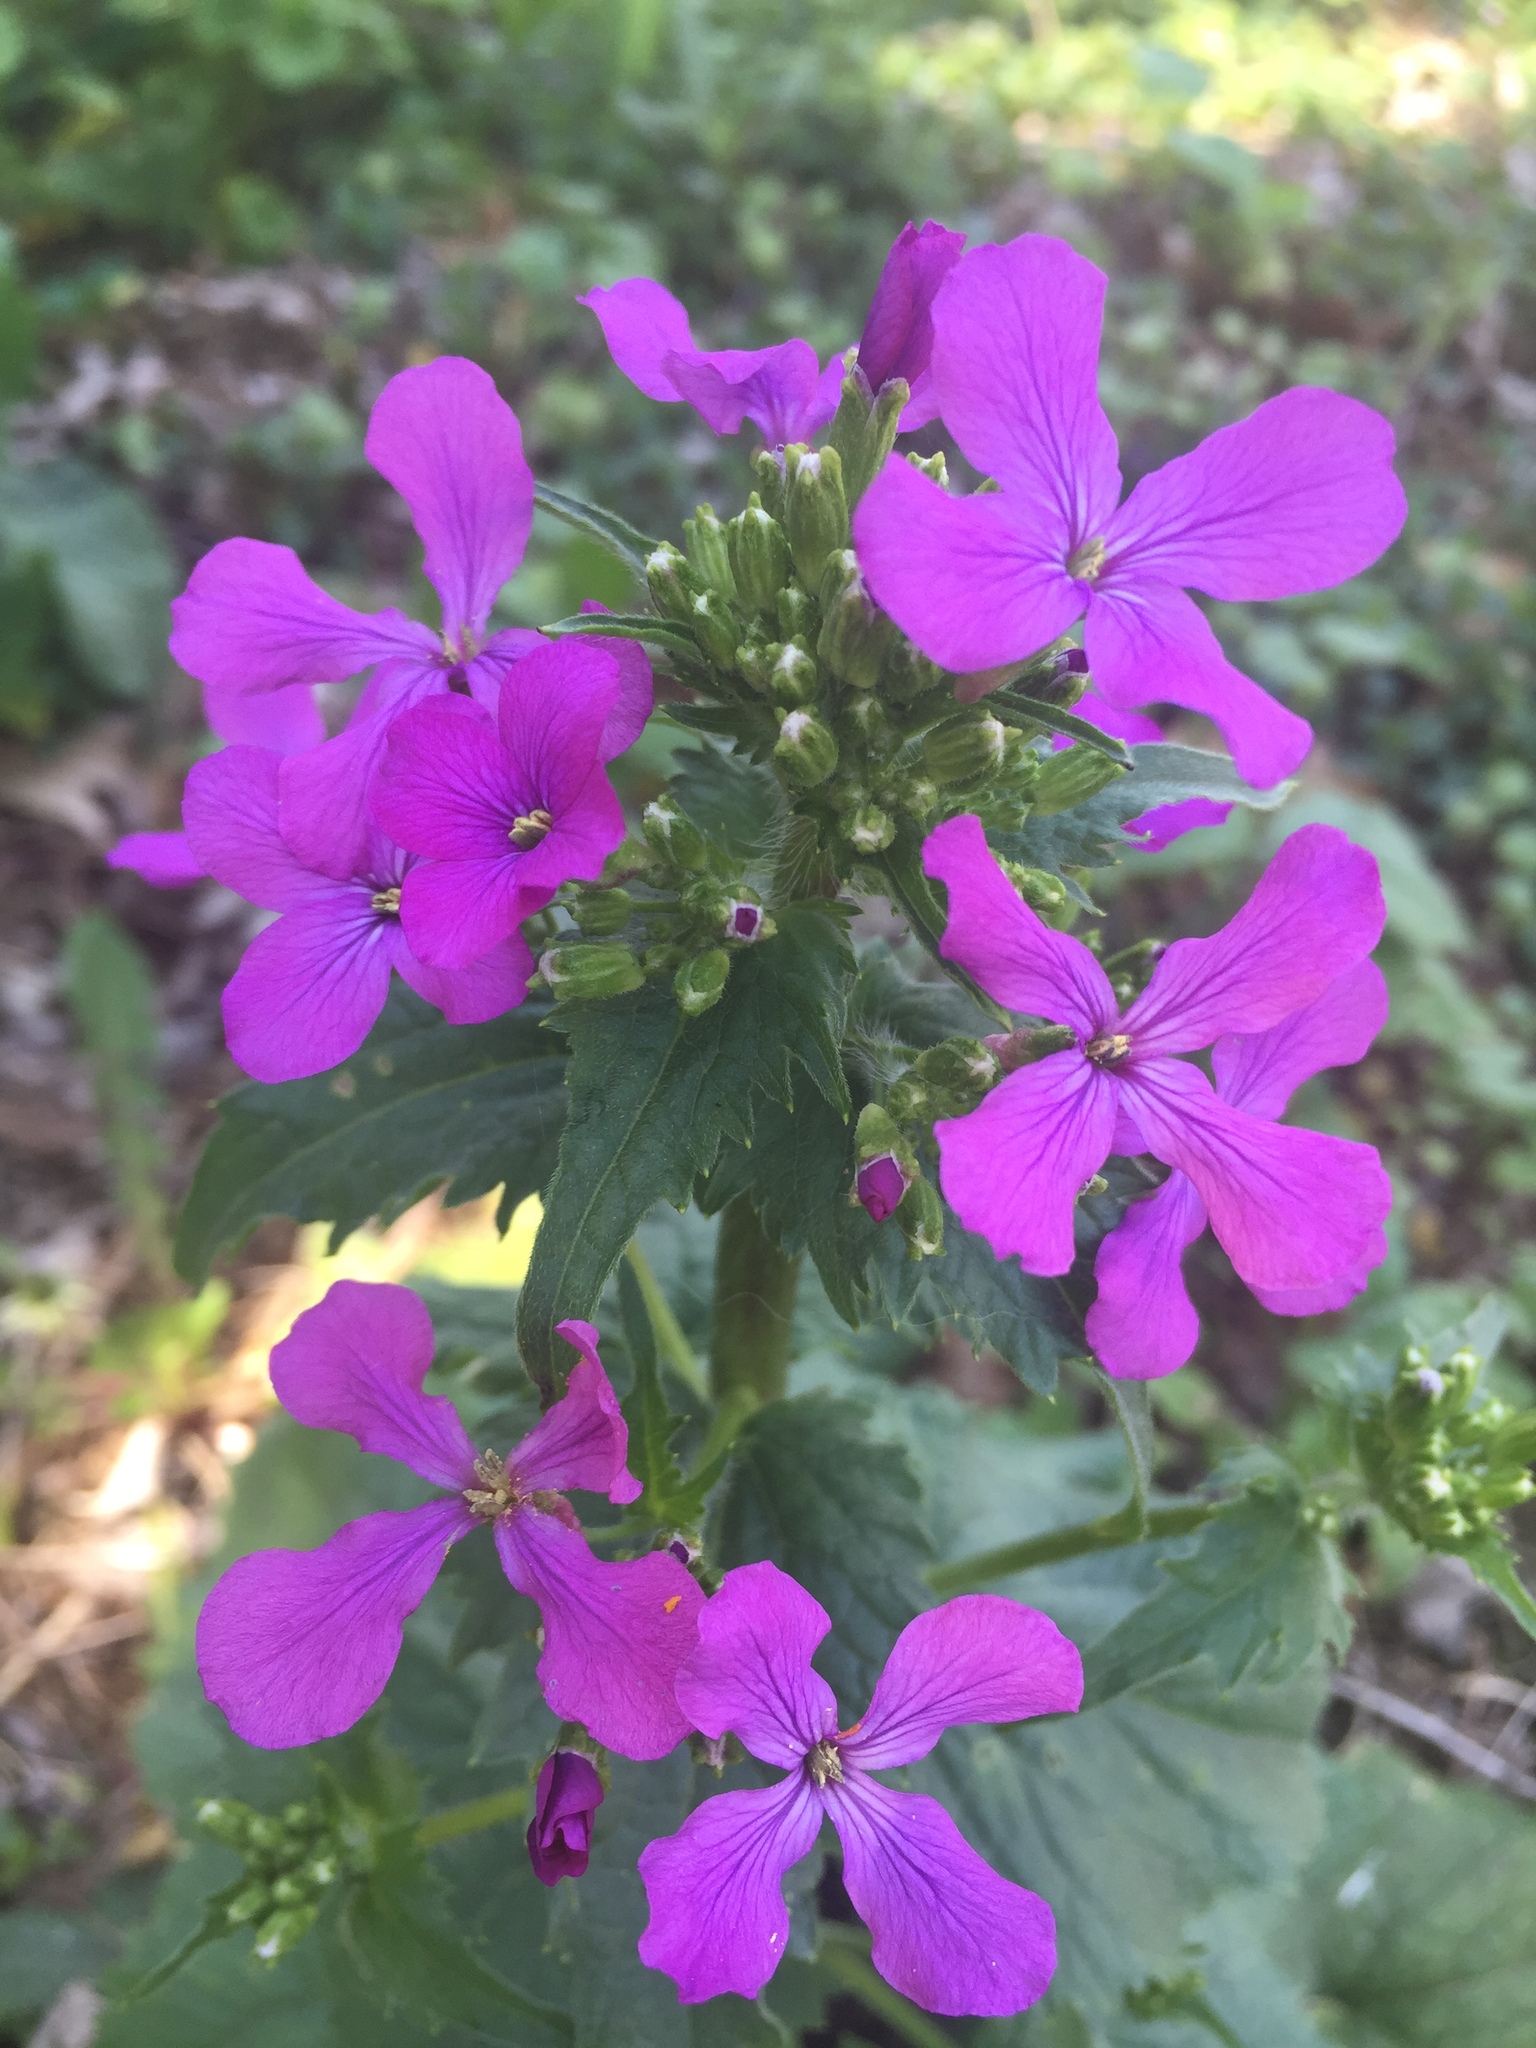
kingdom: Plantae
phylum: Tracheophyta
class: Magnoliopsida
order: Brassicales
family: Brassicaceae
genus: Lunaria
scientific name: Lunaria annua
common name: Honesty
